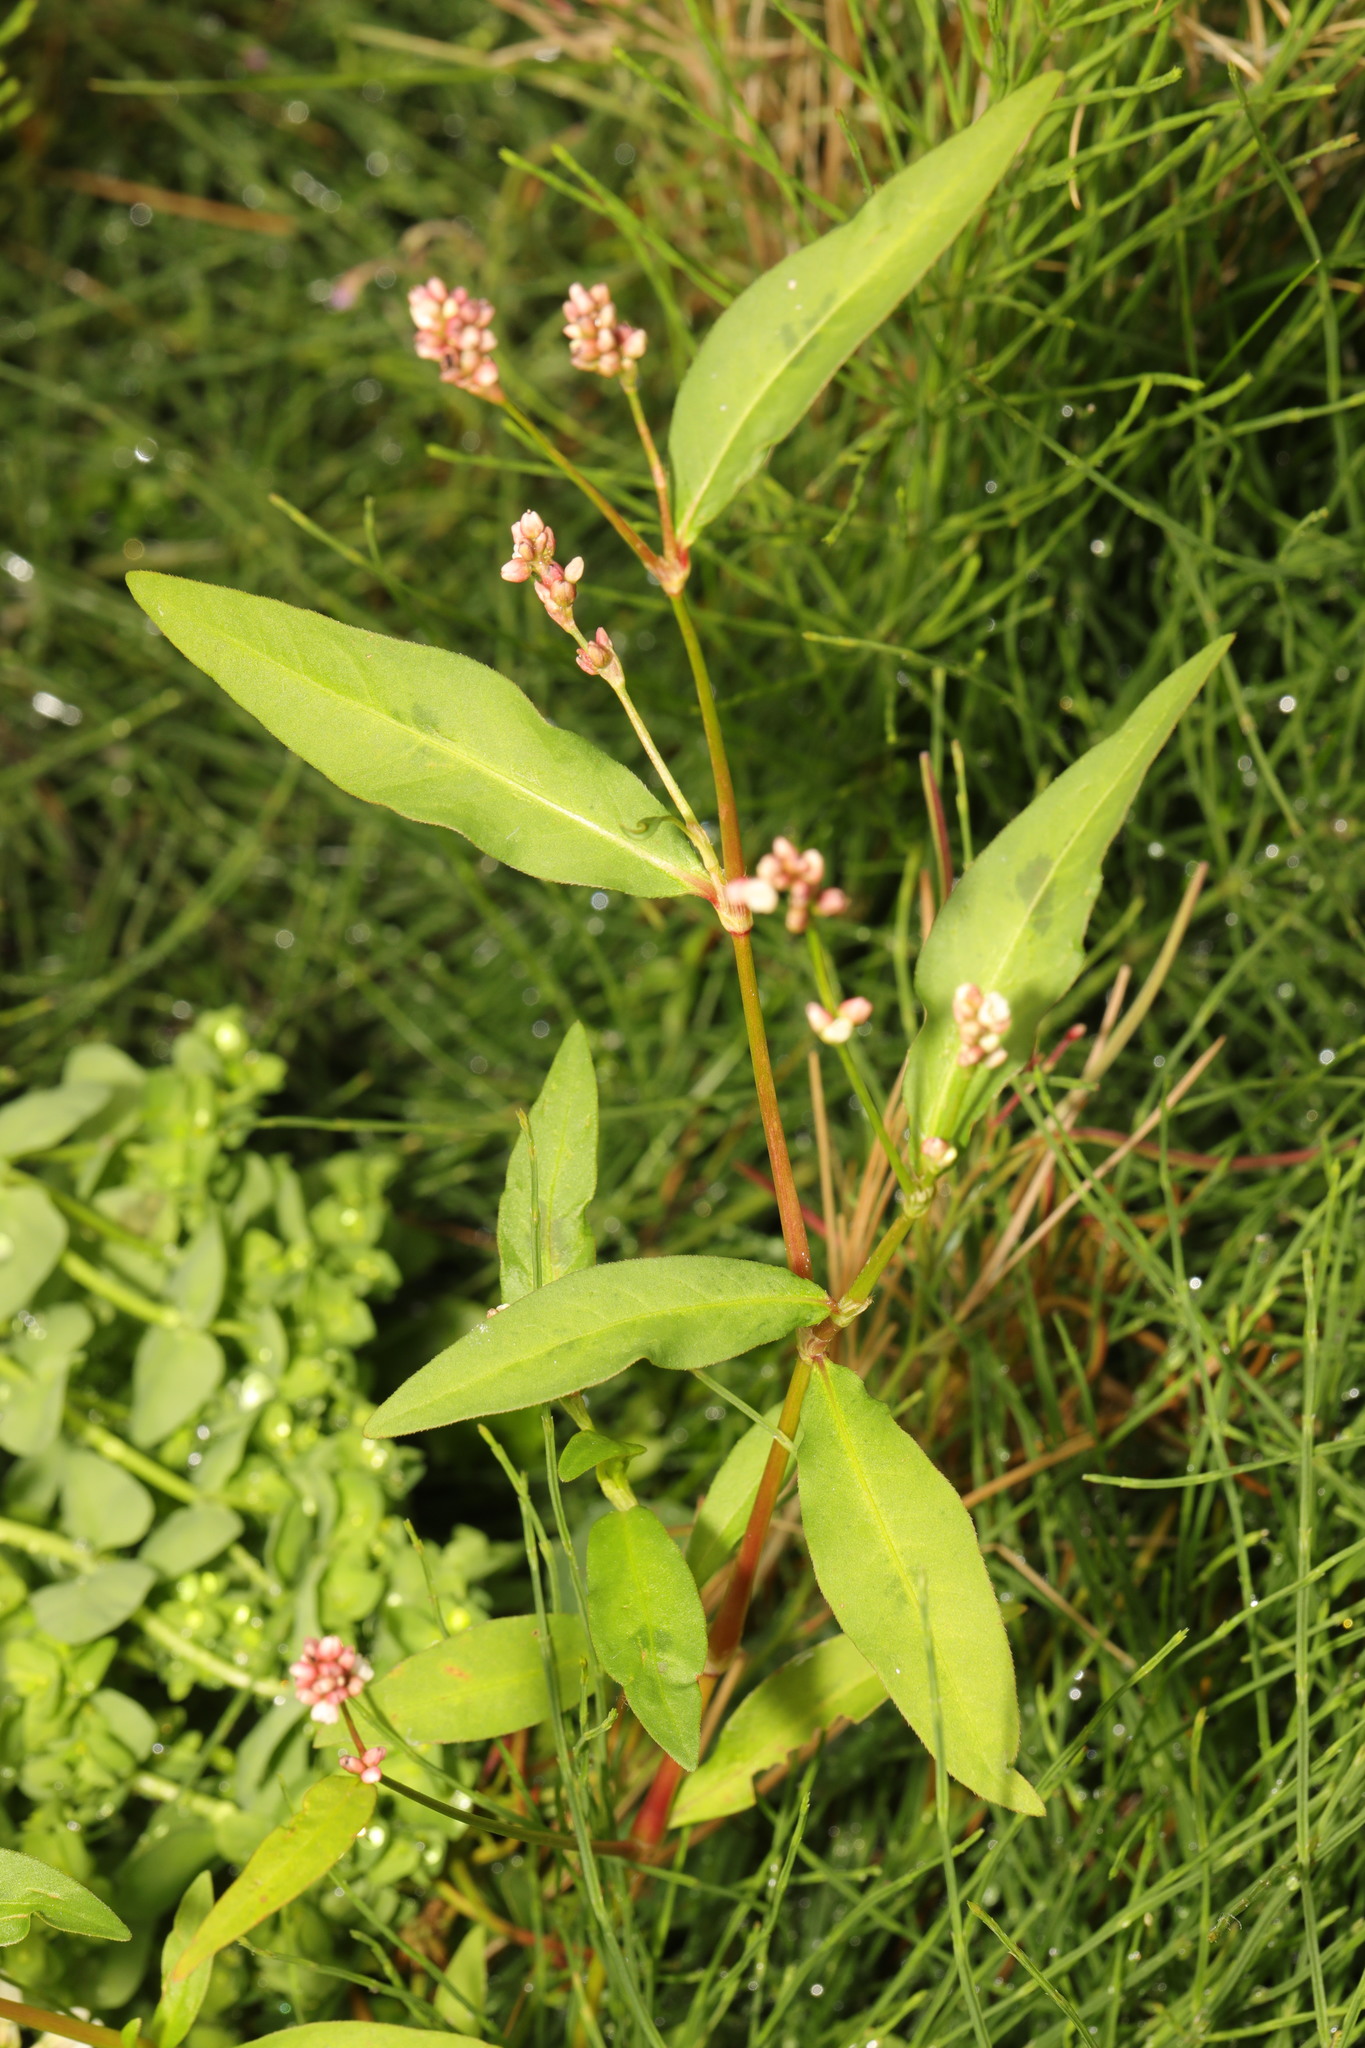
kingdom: Plantae
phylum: Tracheophyta
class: Magnoliopsida
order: Caryophyllales
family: Polygonaceae
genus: Persicaria
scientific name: Persicaria maculosa
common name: Redshank
